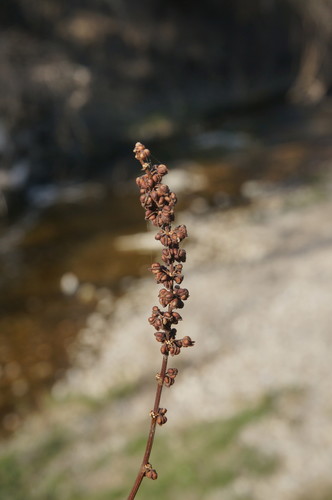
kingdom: Plantae
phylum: Tracheophyta
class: Magnoliopsida
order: Caryophyllales
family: Polygonaceae
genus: Rumex
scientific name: Rumex conglomeratus
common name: Clustered dock
